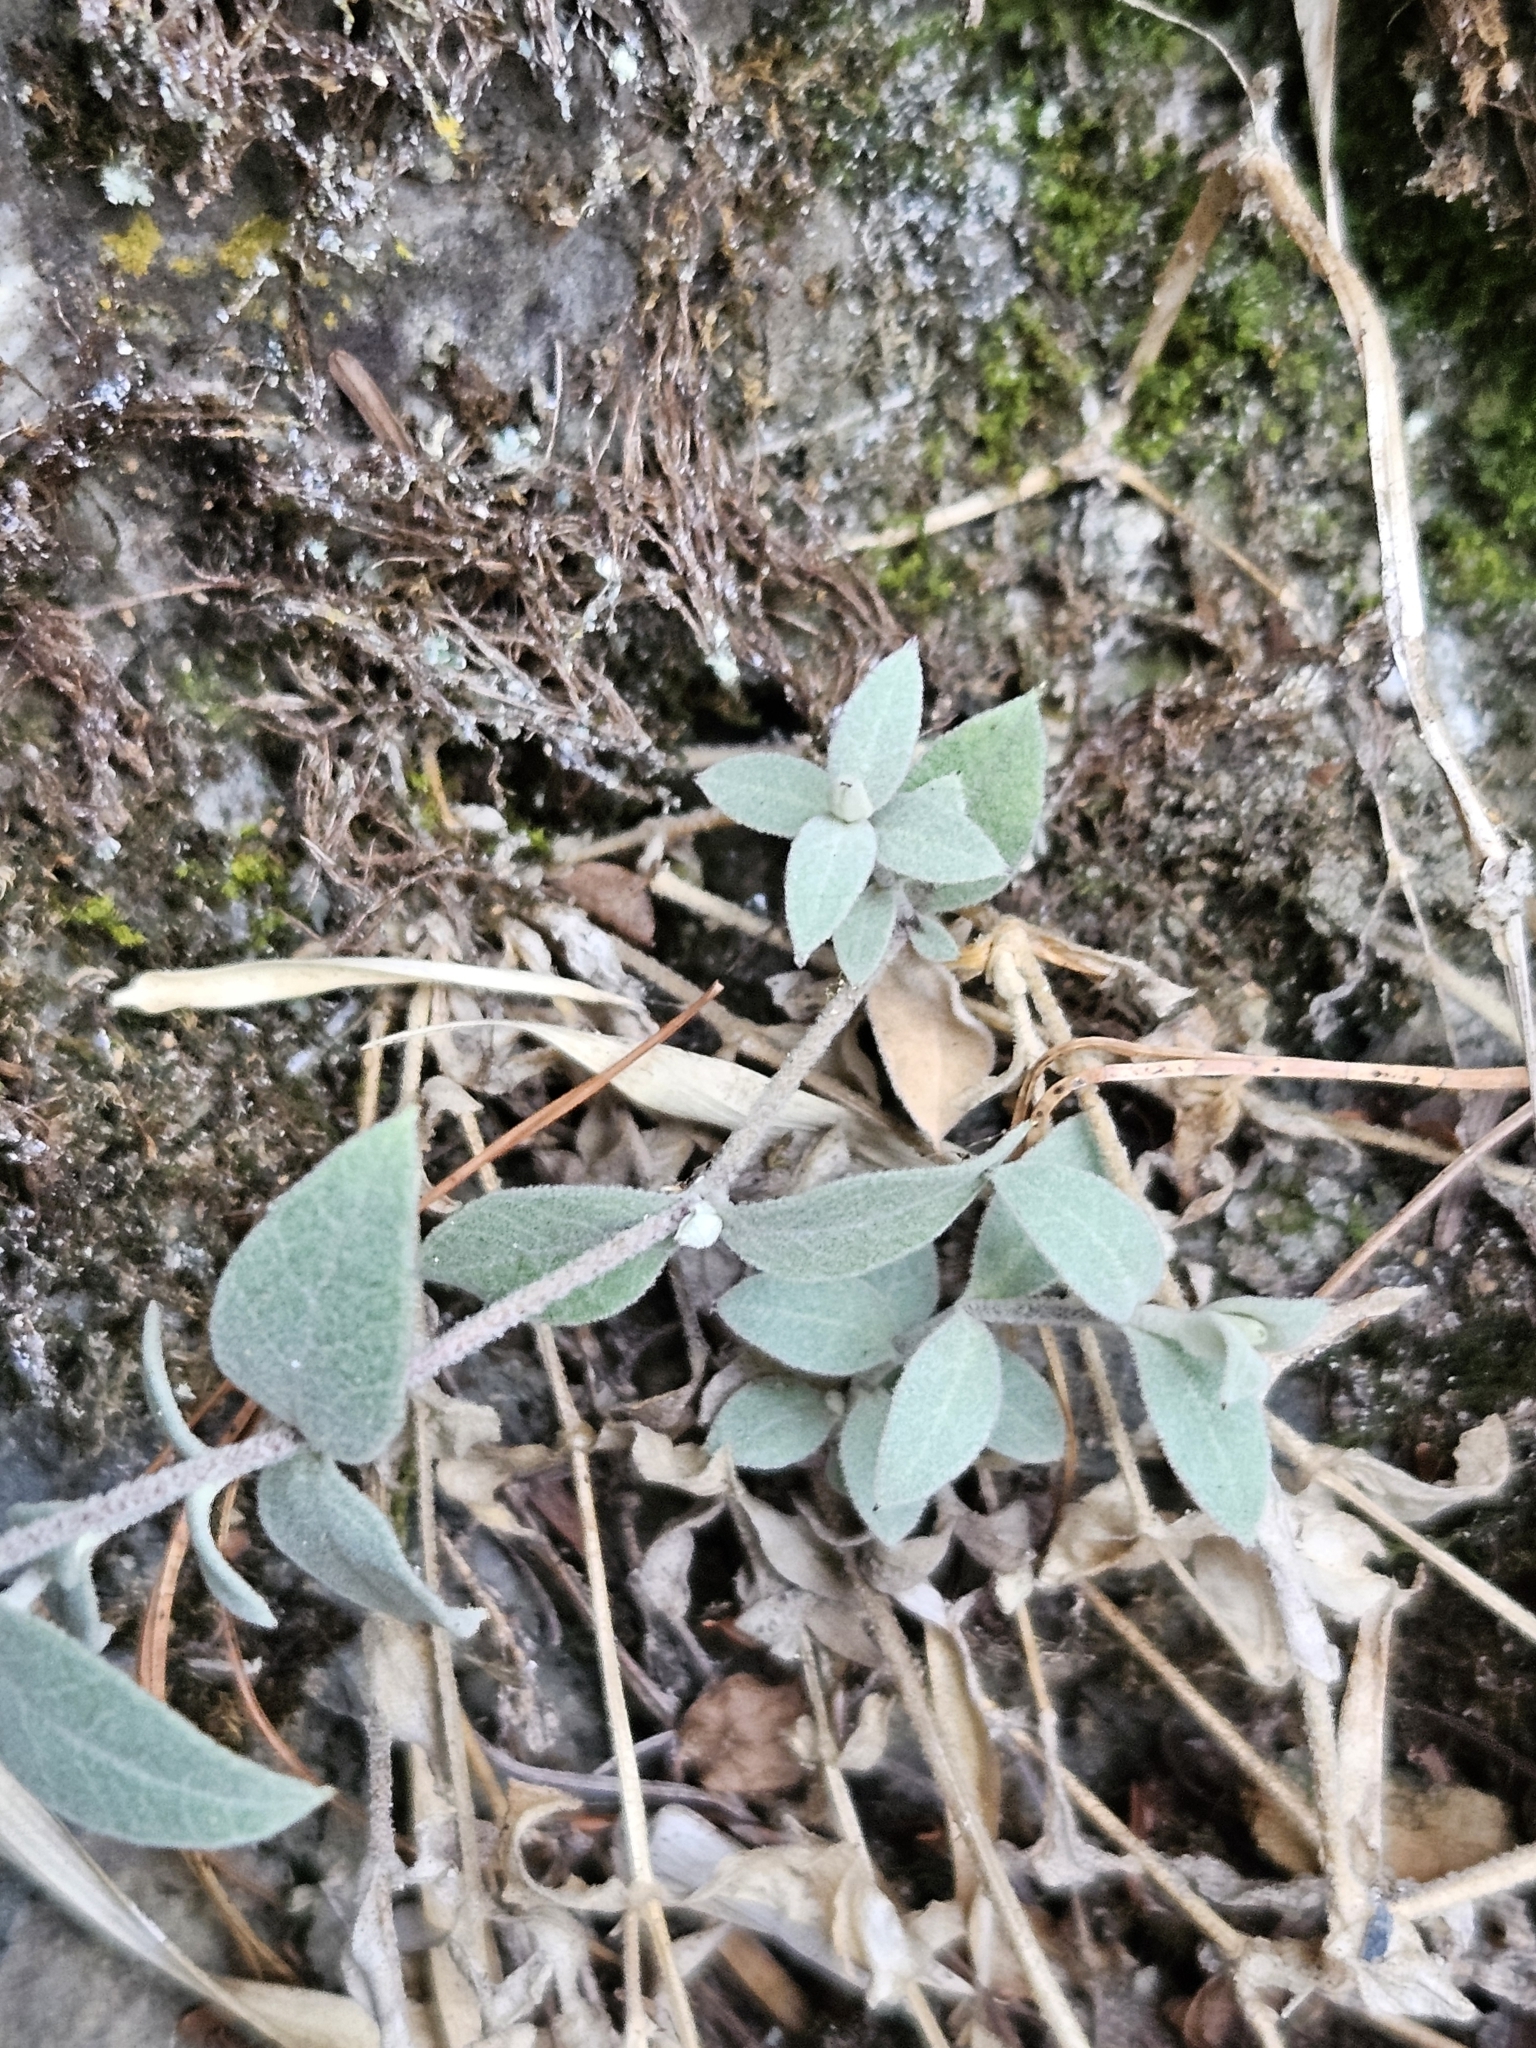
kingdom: Plantae
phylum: Tracheophyta
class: Magnoliopsida
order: Caryophyllales
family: Caryophyllaceae
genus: Stellaria
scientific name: Stellaria vestita
